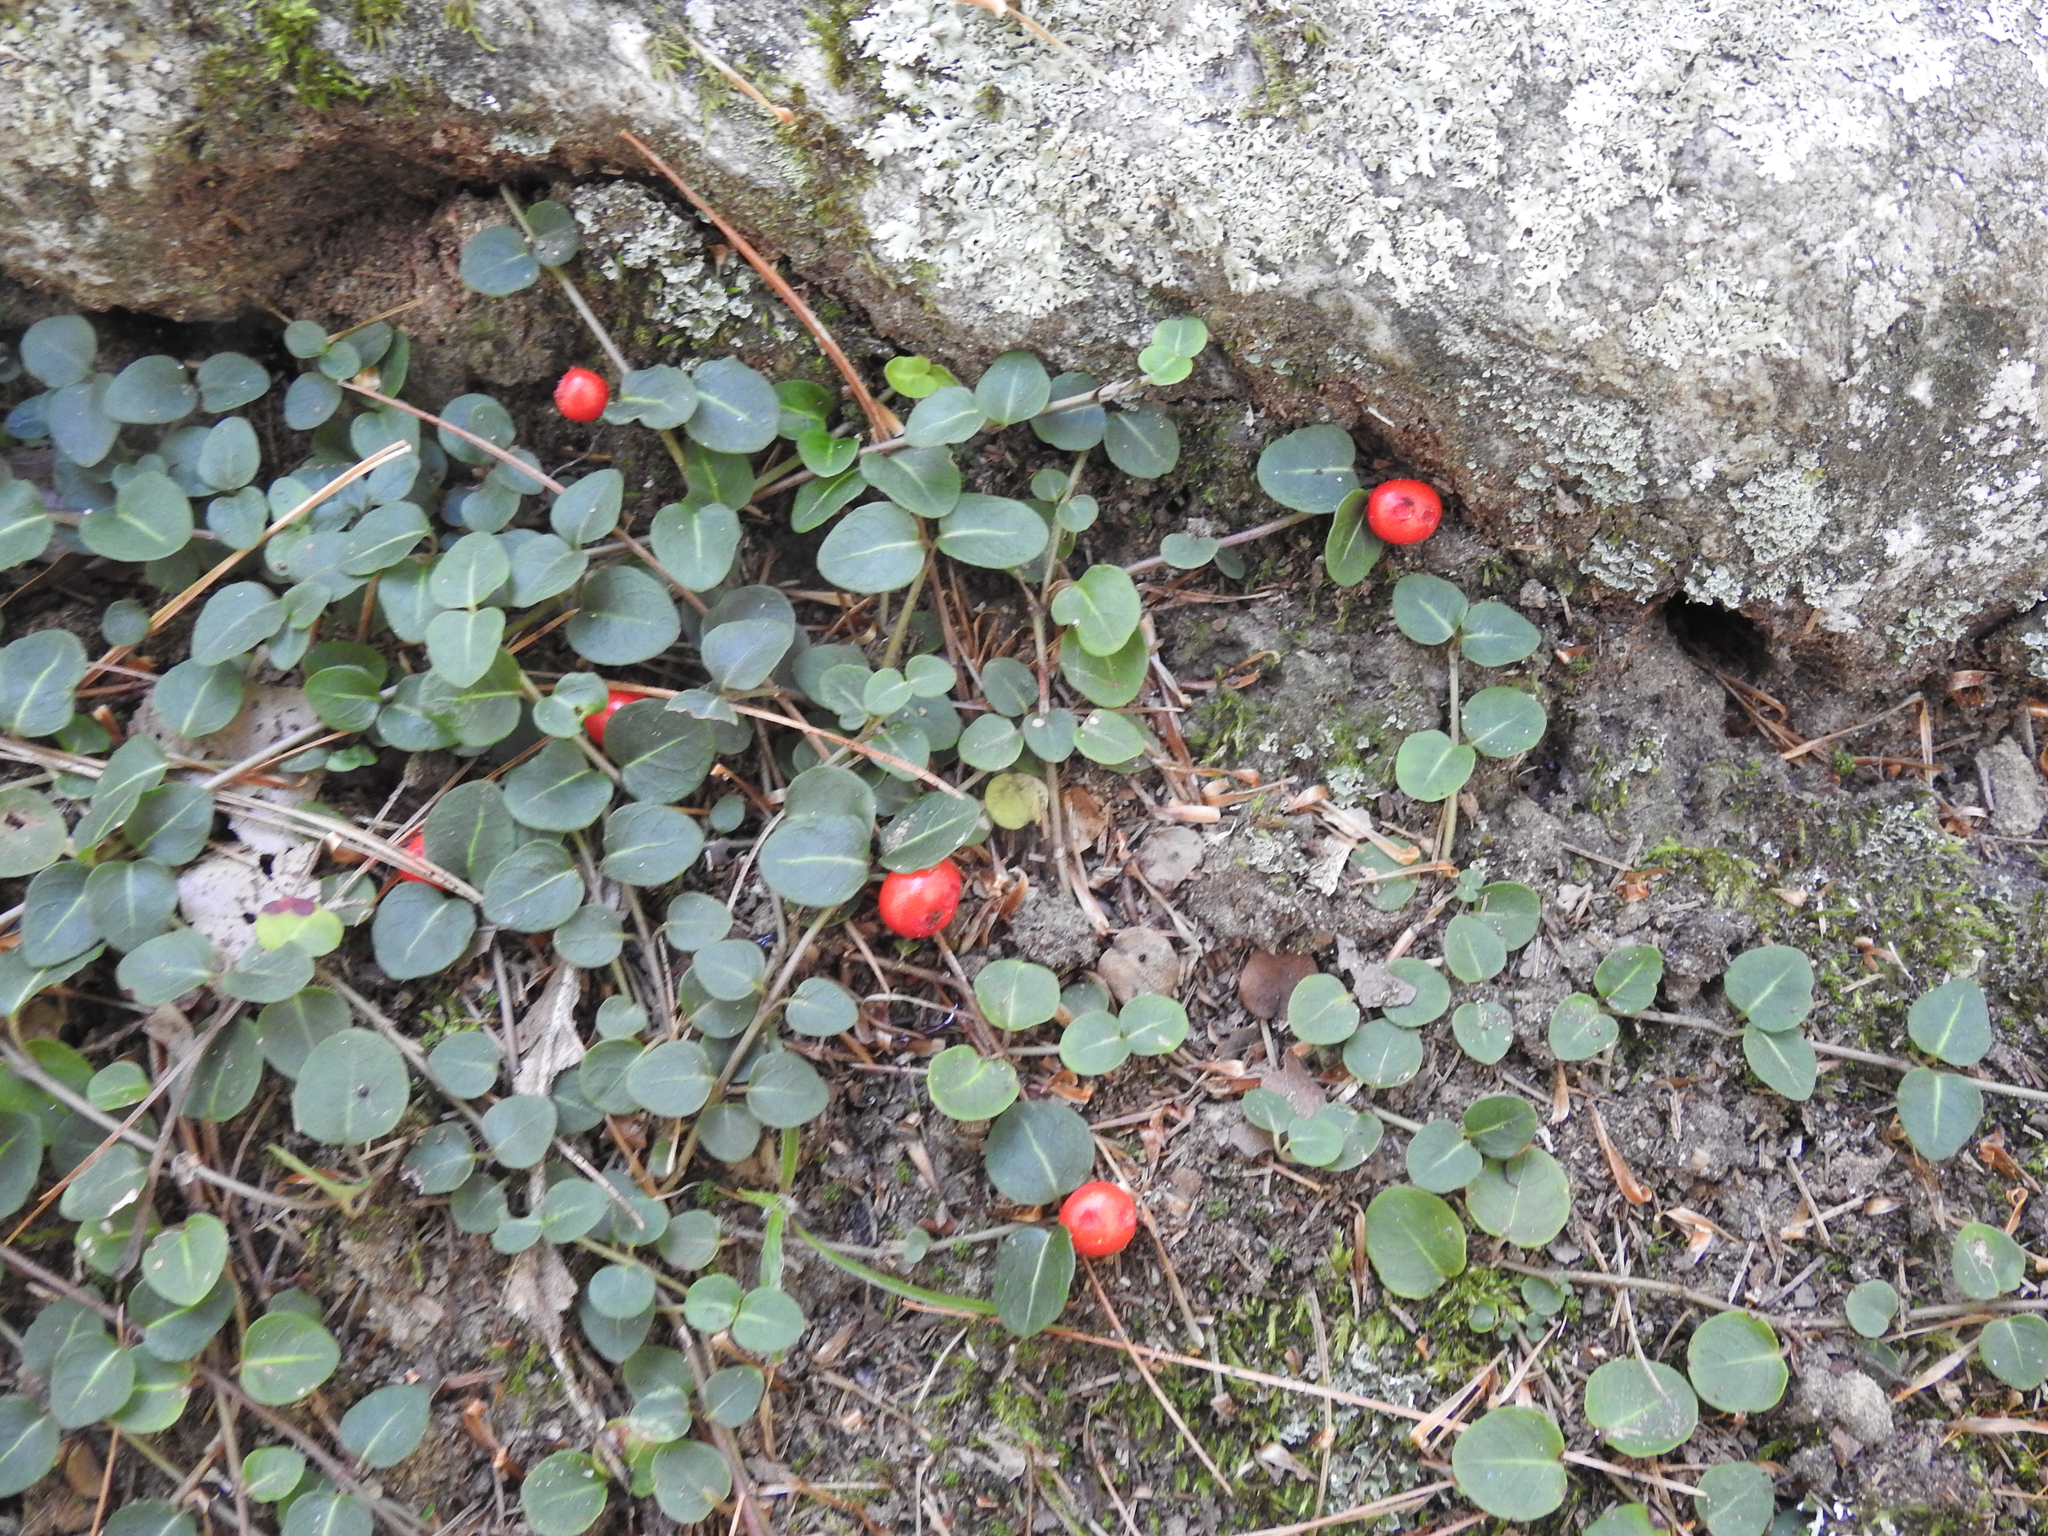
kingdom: Plantae
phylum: Tracheophyta
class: Magnoliopsida
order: Gentianales
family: Rubiaceae
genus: Mitchella
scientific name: Mitchella repens
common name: Partridge-berry
